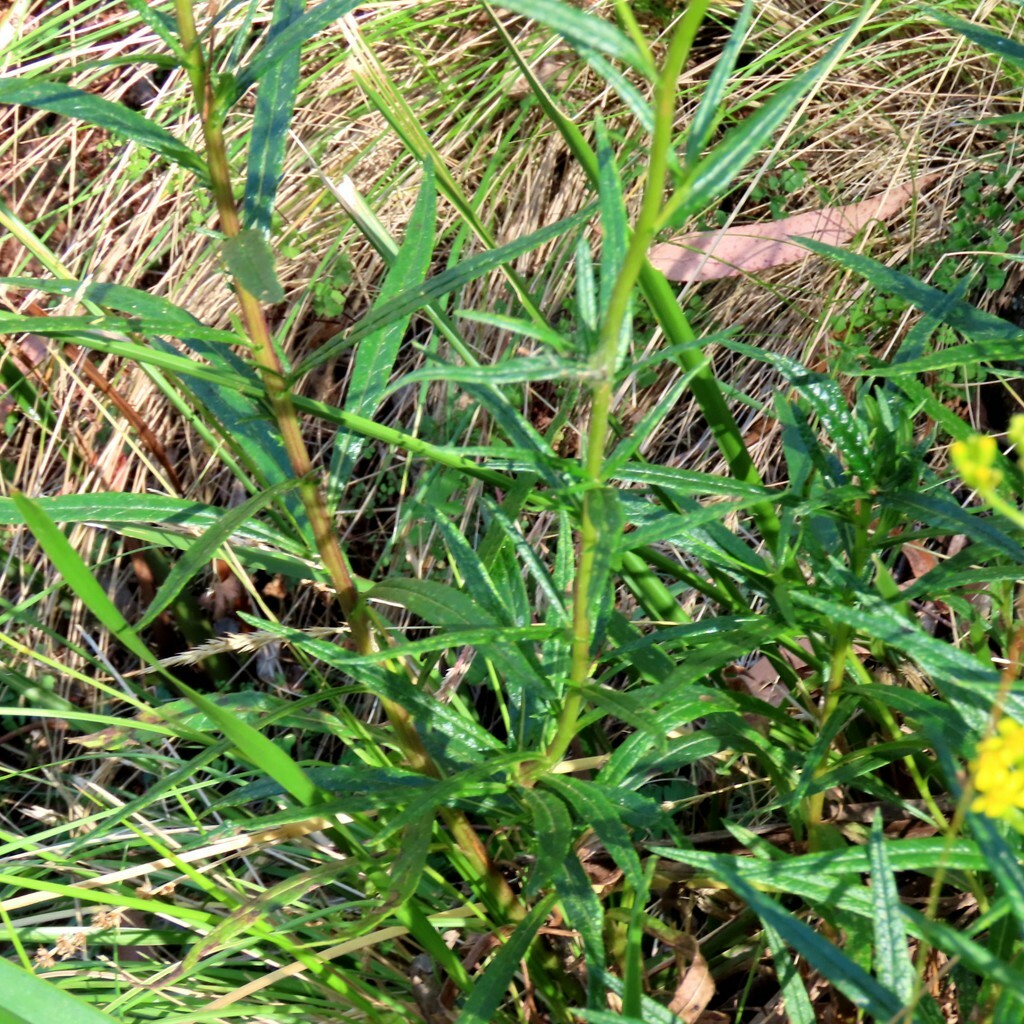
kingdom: Plantae
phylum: Tracheophyta
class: Magnoliopsida
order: Asterales
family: Asteraceae
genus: Senecio
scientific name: Senecio linearifolius
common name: Fireweed groundsel
